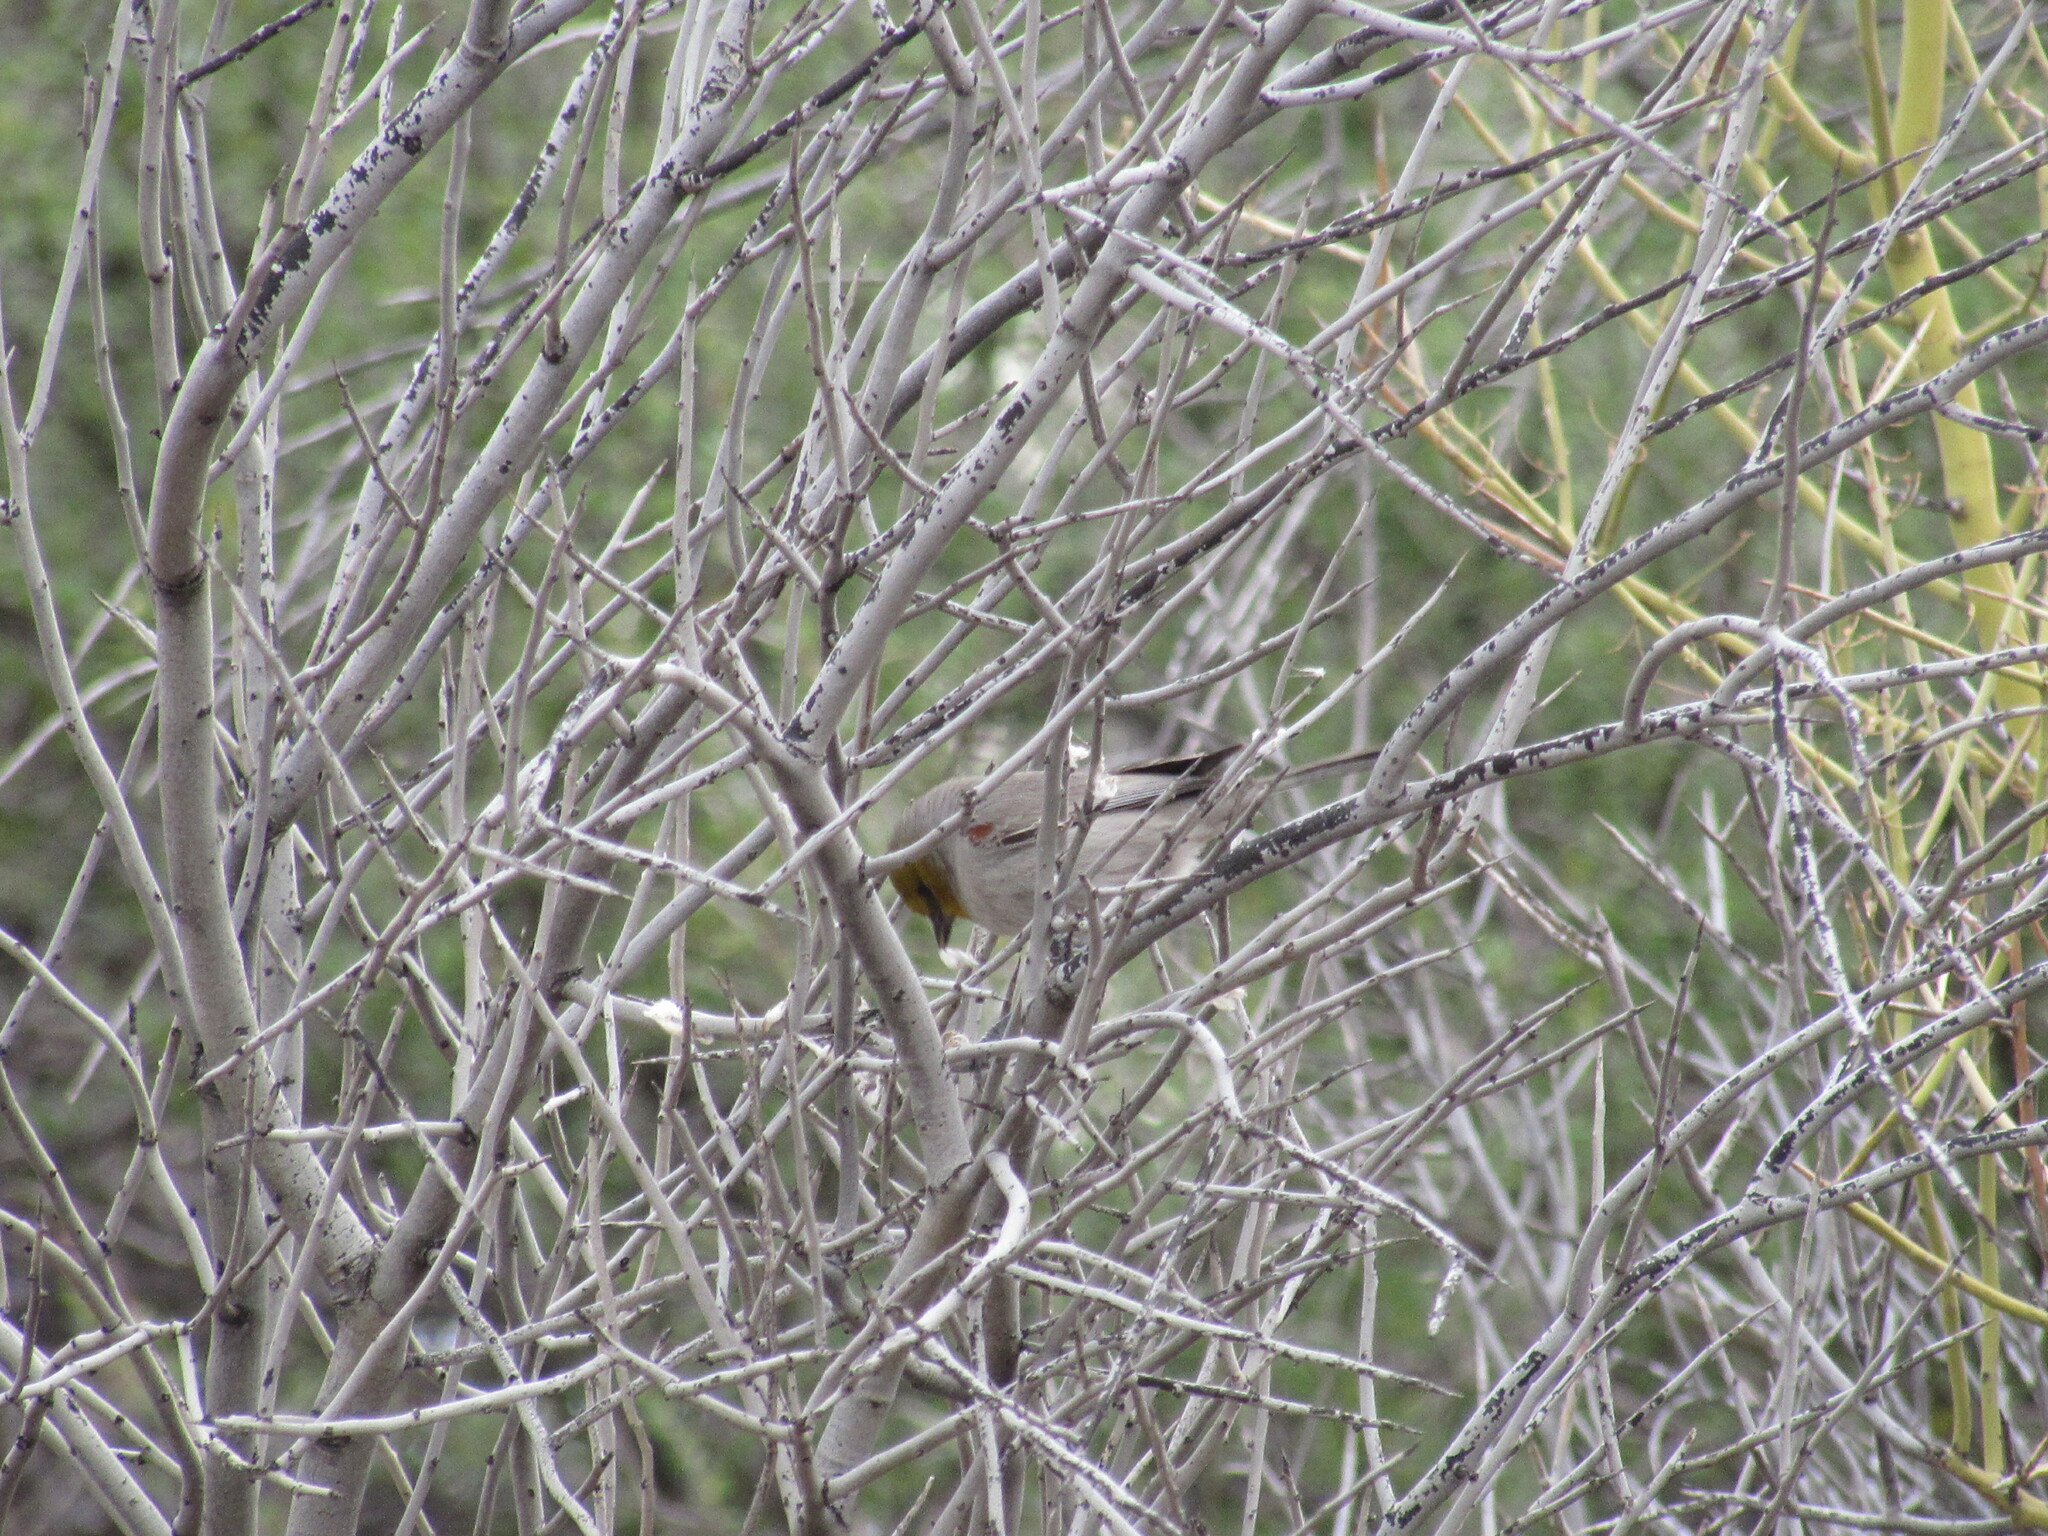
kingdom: Animalia
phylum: Chordata
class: Aves
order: Passeriformes
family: Remizidae
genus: Auriparus
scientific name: Auriparus flaviceps
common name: Verdin
